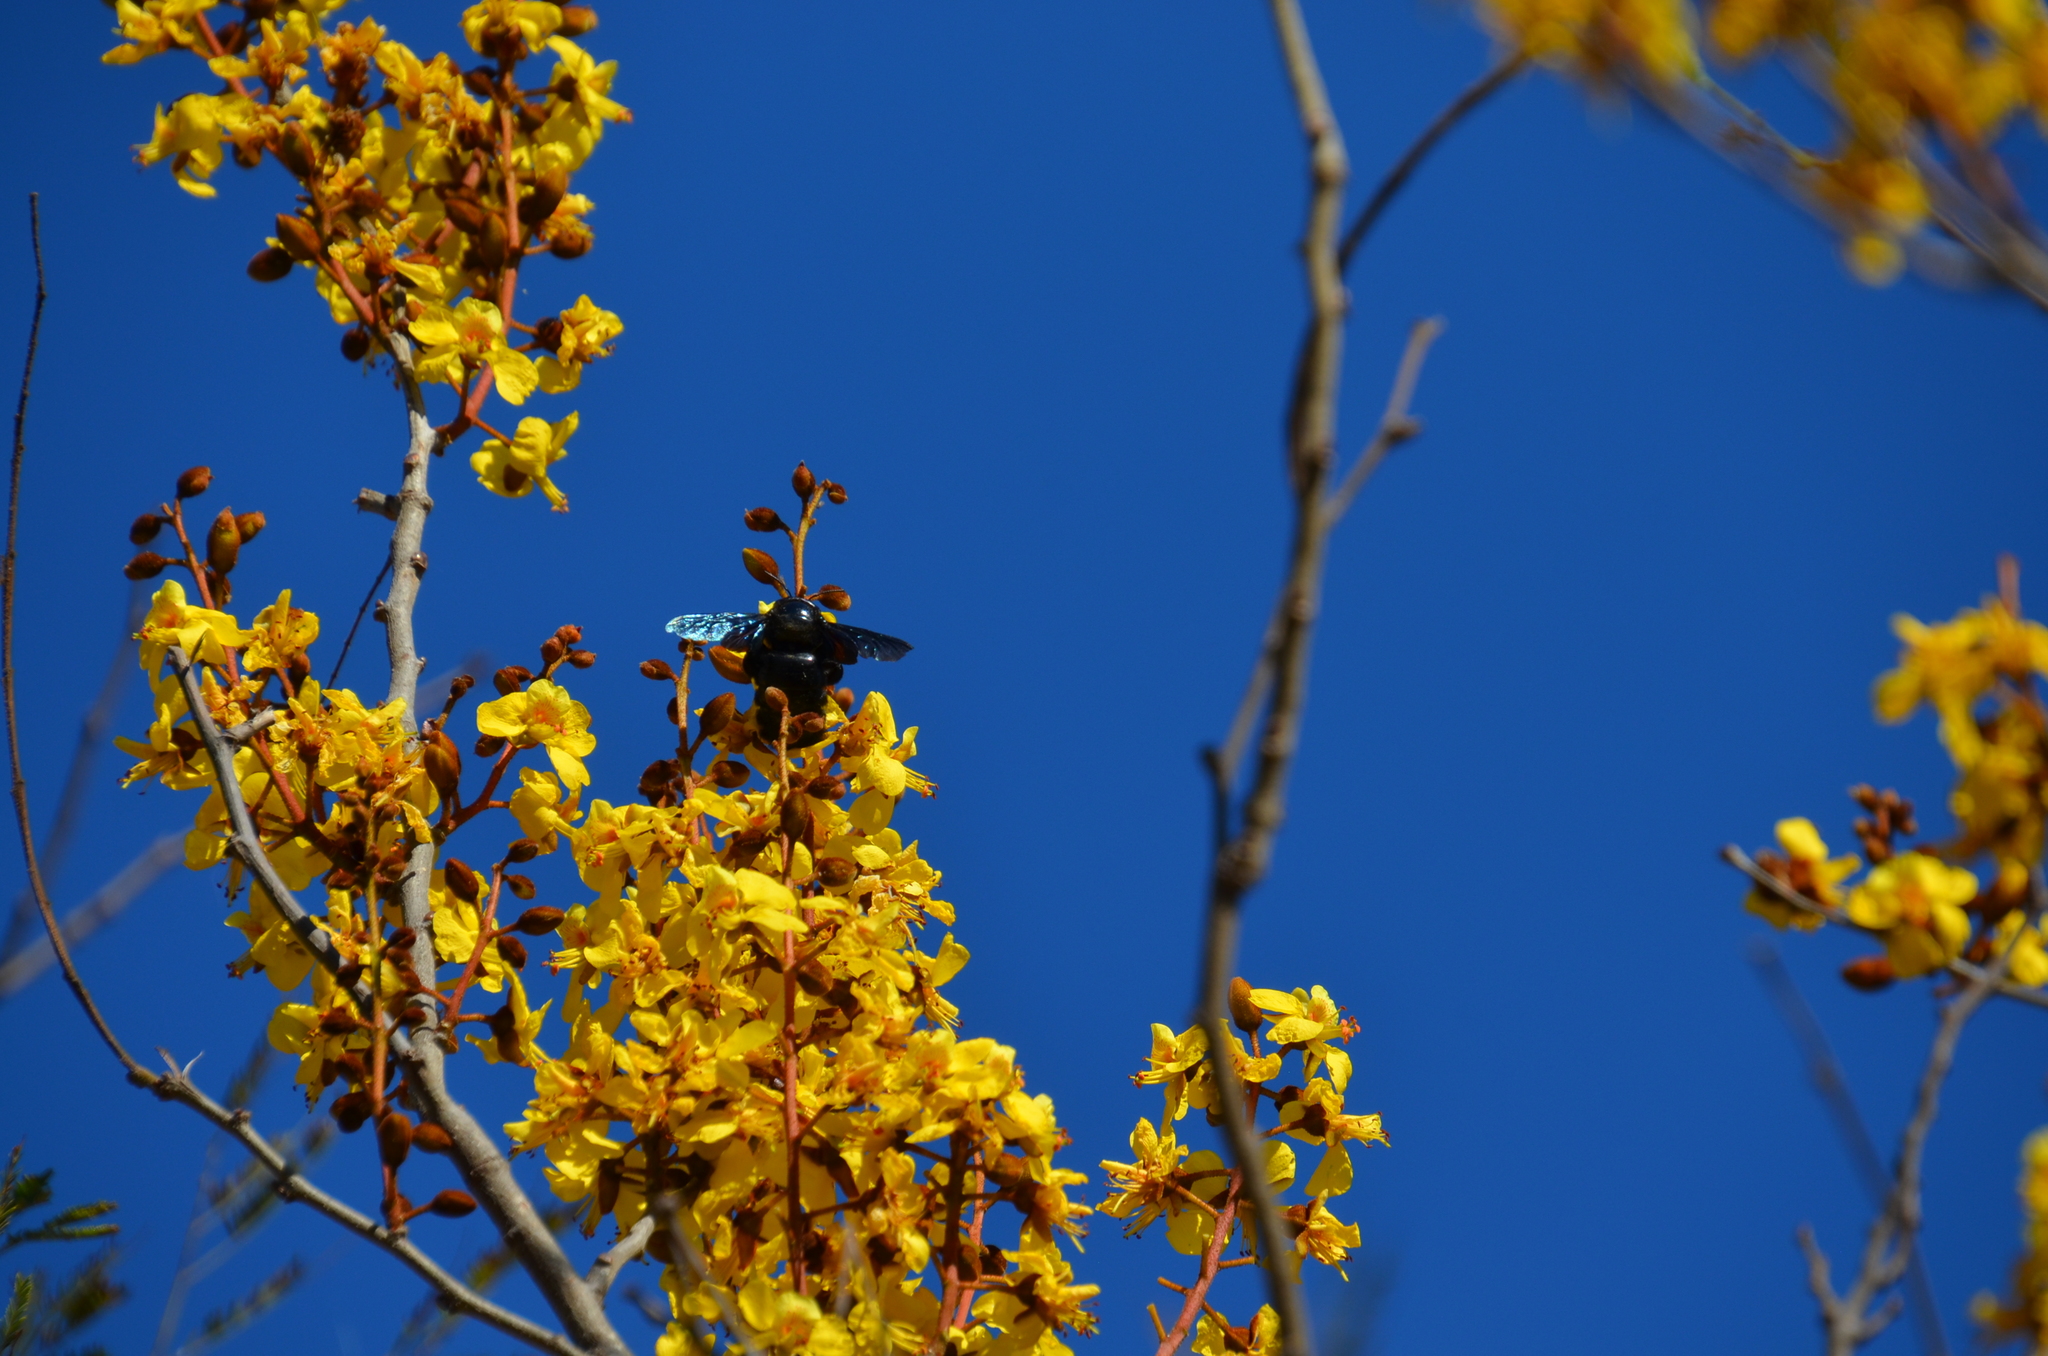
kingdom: Animalia
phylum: Arthropoda
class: Insecta
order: Hymenoptera
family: Apidae
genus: Xylocopa
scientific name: Xylocopa fimbriata
